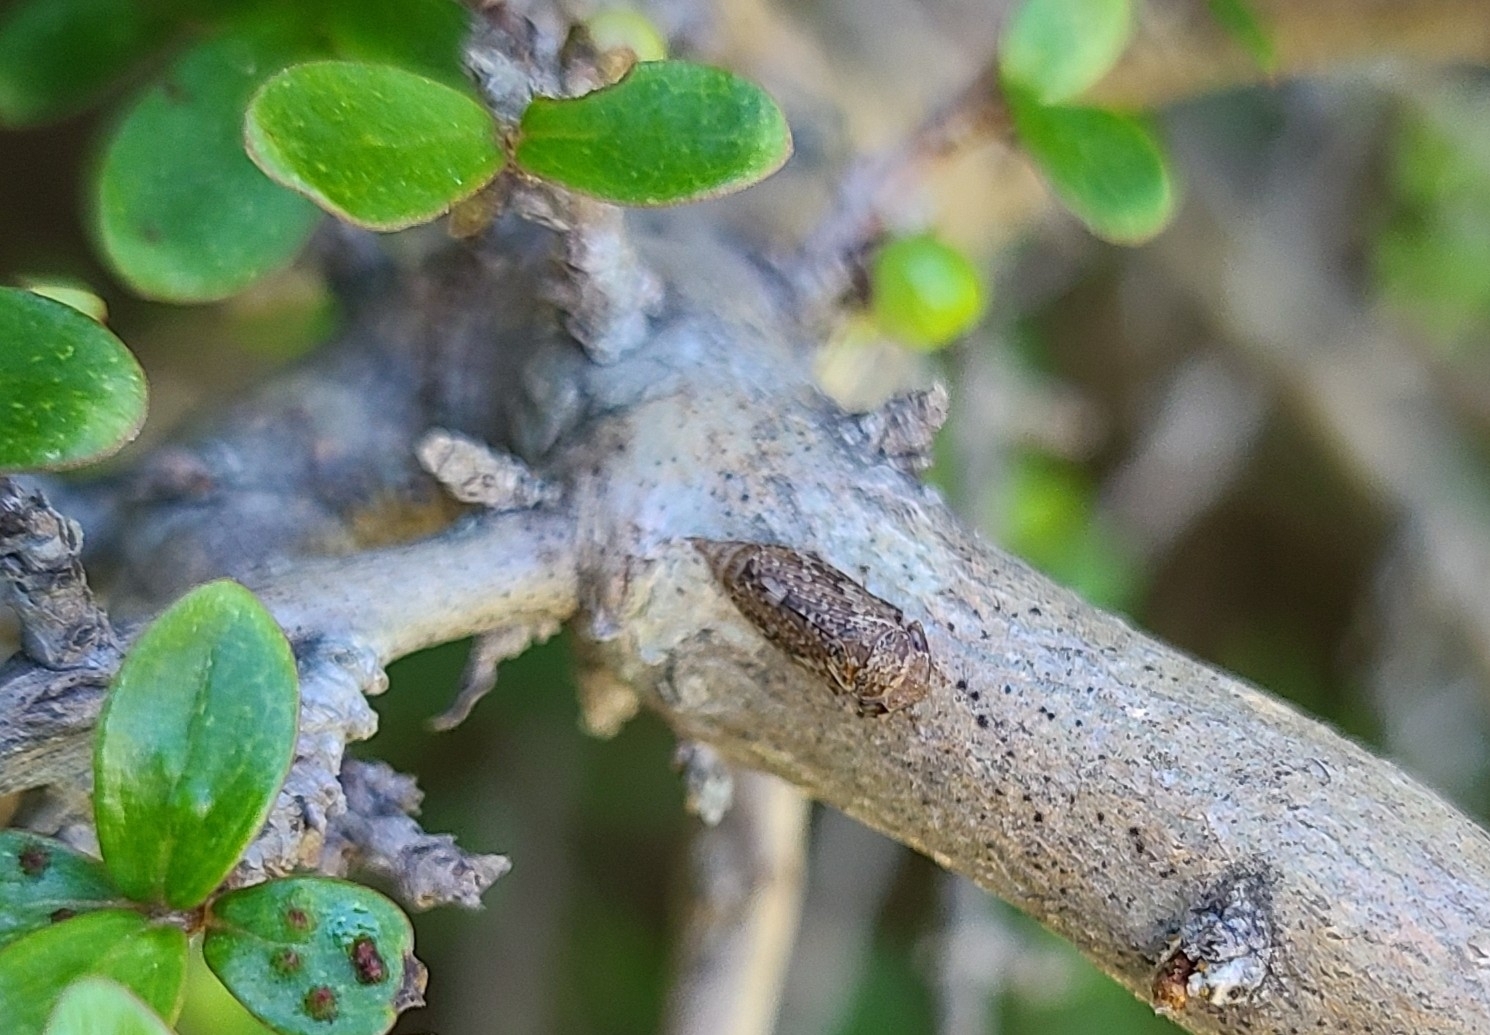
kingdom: Animalia
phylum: Arthropoda
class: Insecta
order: Hemiptera
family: Aphrophoridae
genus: Philaenus
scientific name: Philaenus spumarius
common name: Meadow spittlebug
